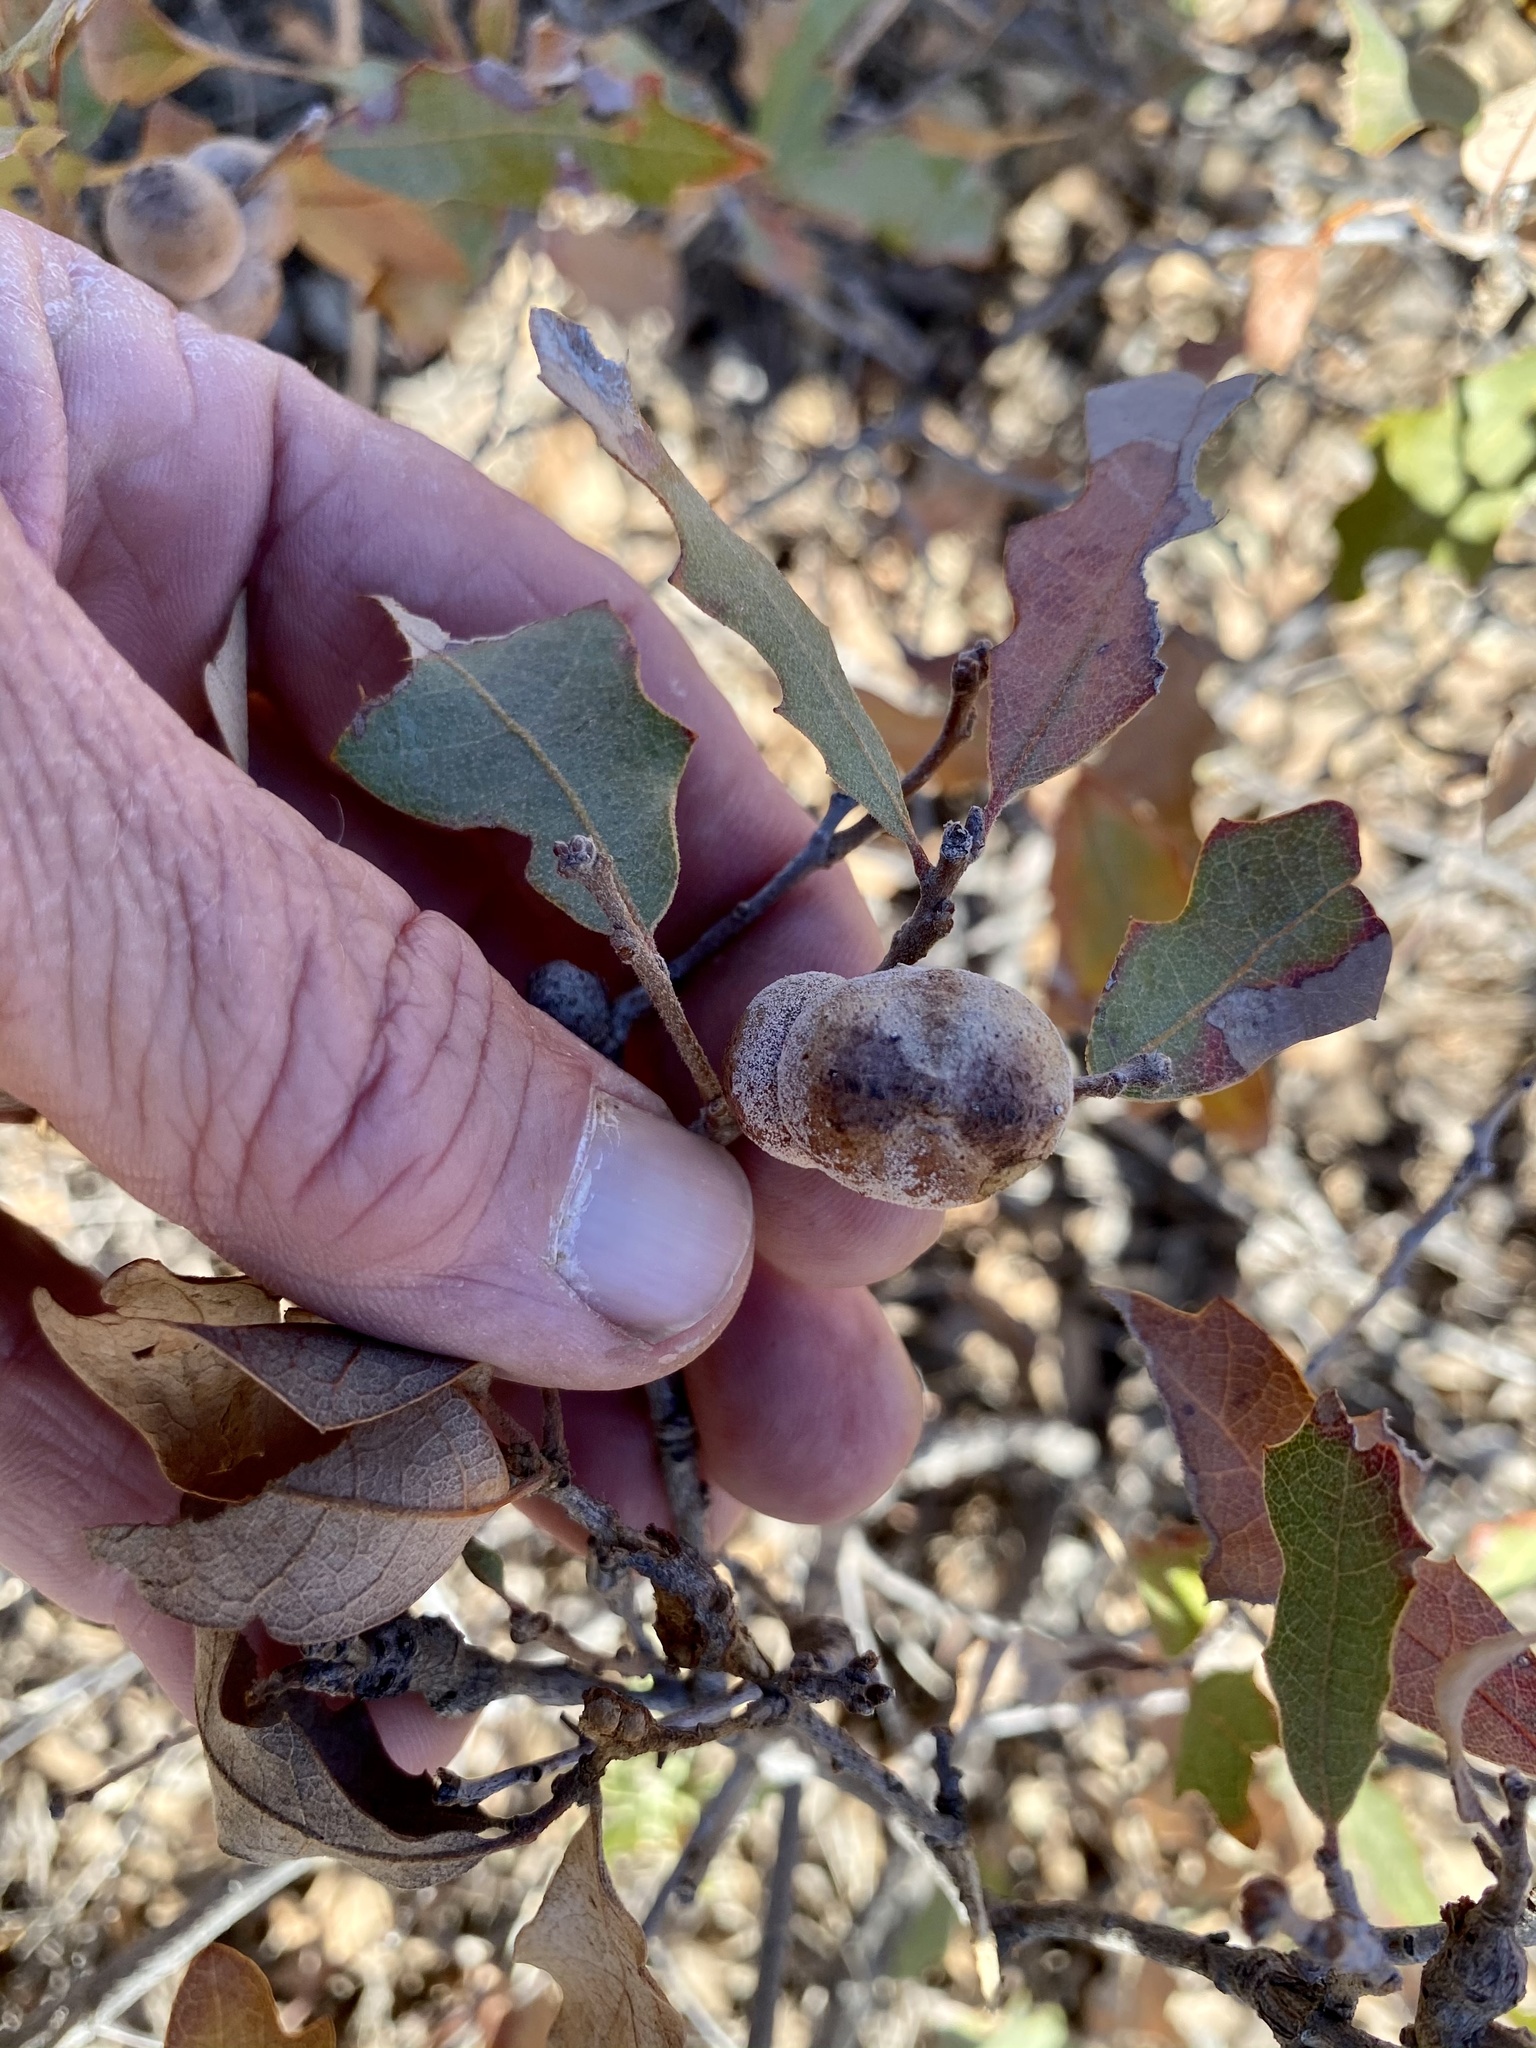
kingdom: Animalia
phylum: Arthropoda
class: Insecta
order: Hymenoptera
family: Cynipidae
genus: Disholcaspis
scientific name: Disholcaspis erugomamma
